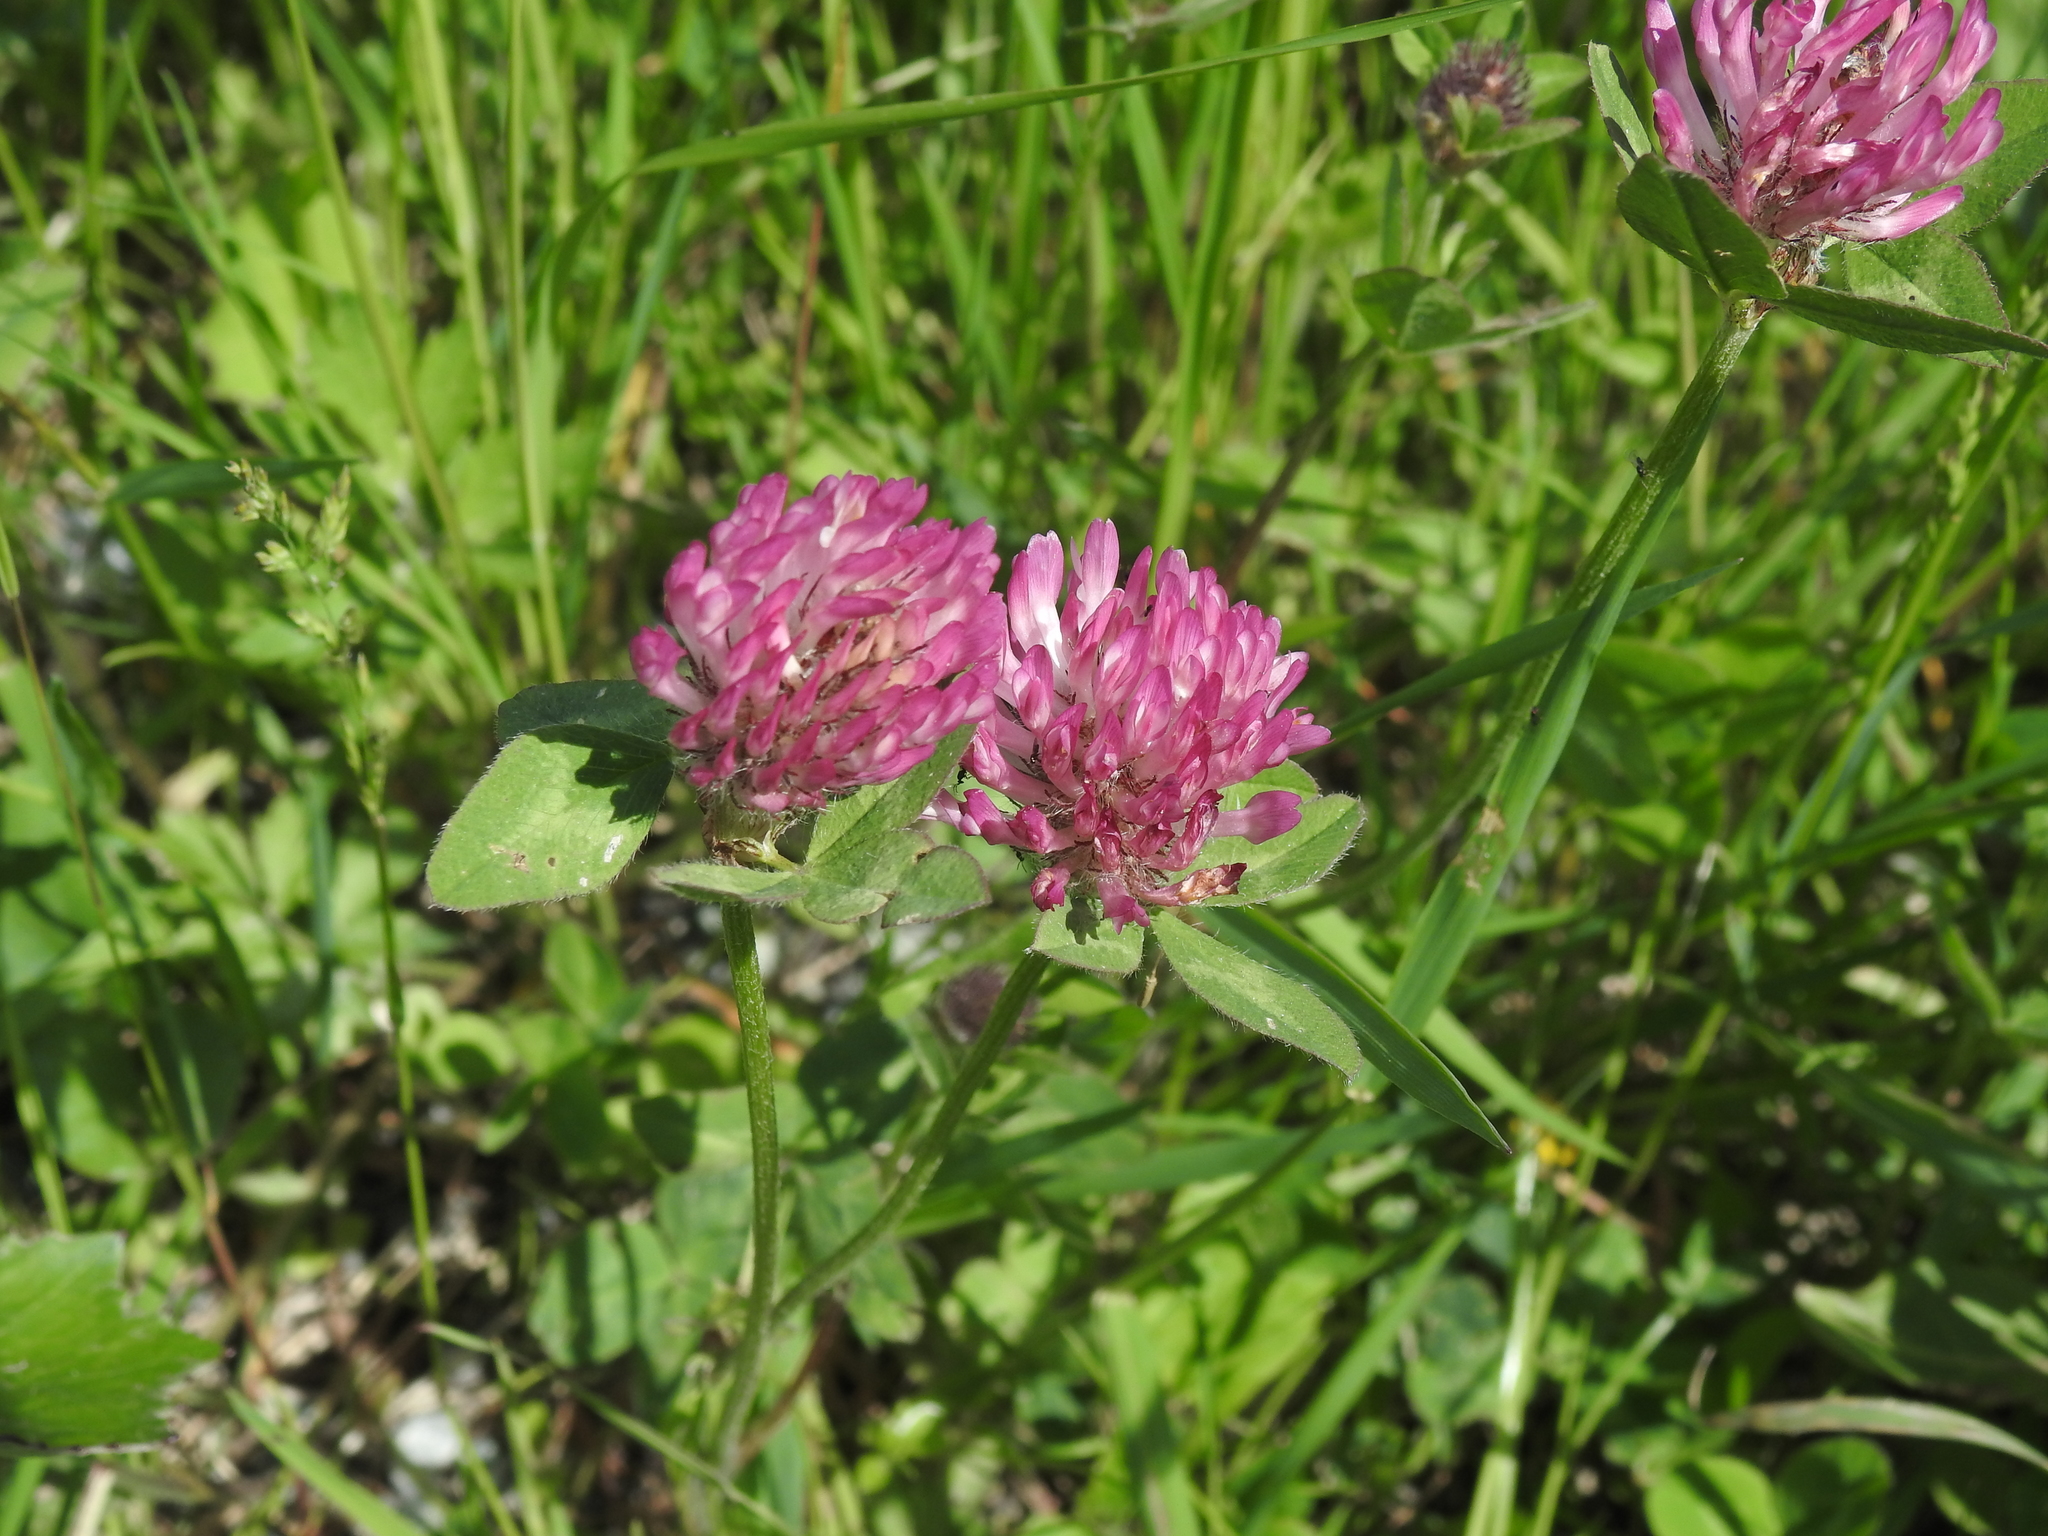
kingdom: Plantae
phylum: Tracheophyta
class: Magnoliopsida
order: Fabales
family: Fabaceae
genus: Trifolium
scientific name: Trifolium pratense
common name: Red clover
